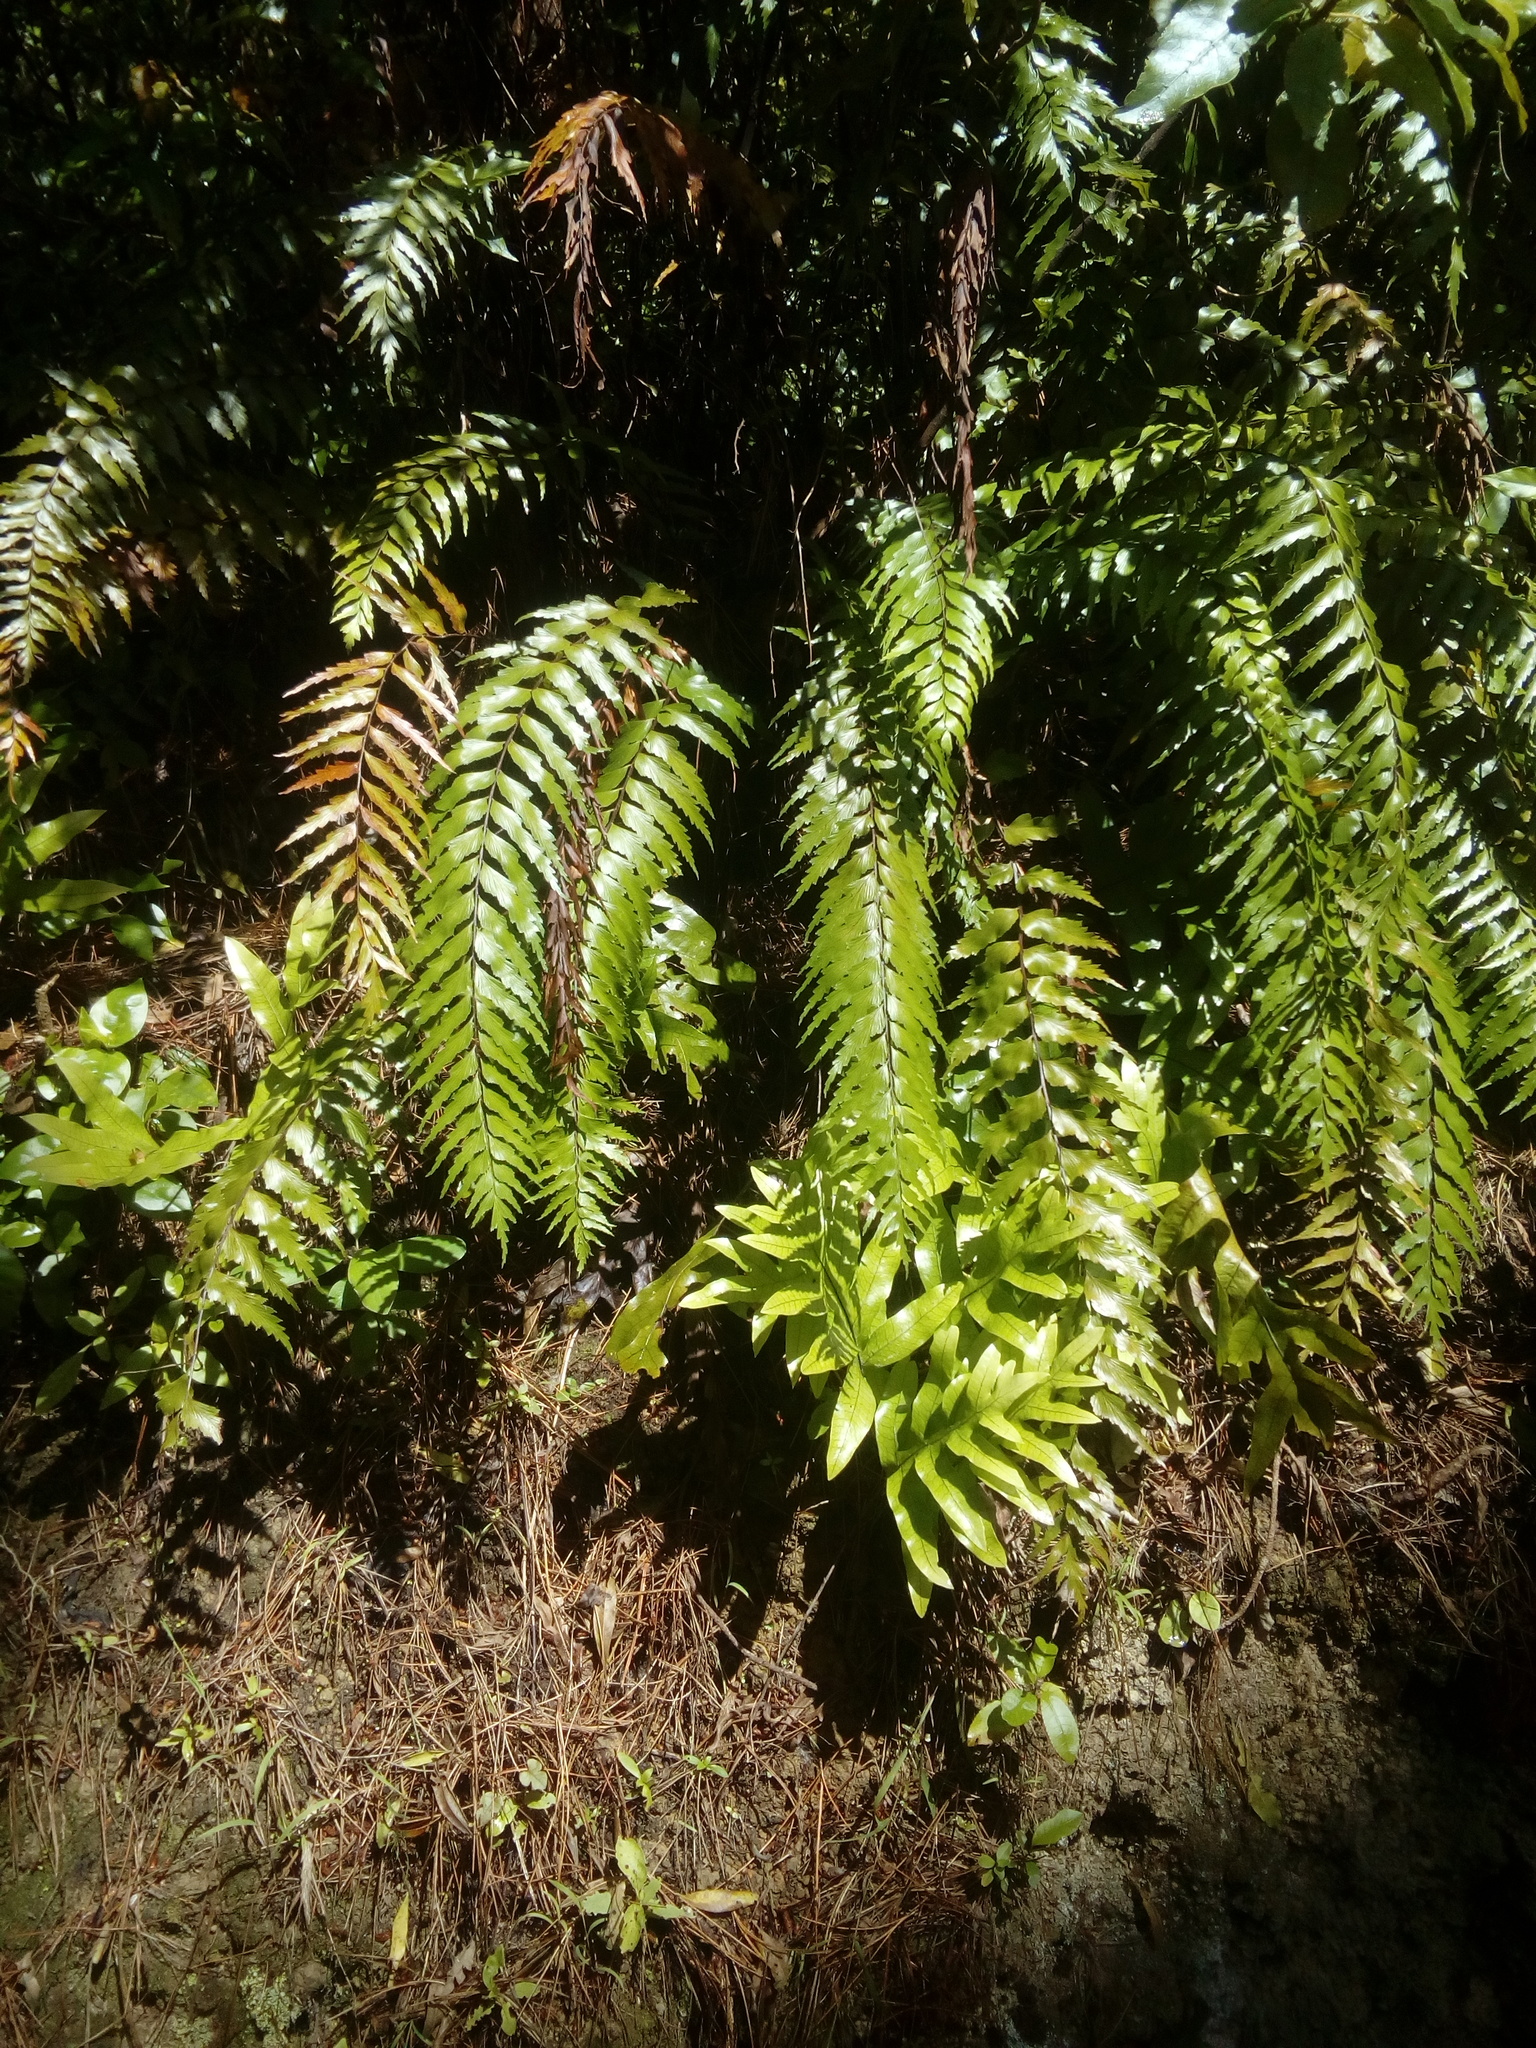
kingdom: Plantae
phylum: Tracheophyta
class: Polypodiopsida
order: Polypodiales
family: Aspleniaceae
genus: Asplenium
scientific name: Asplenium polyodon
